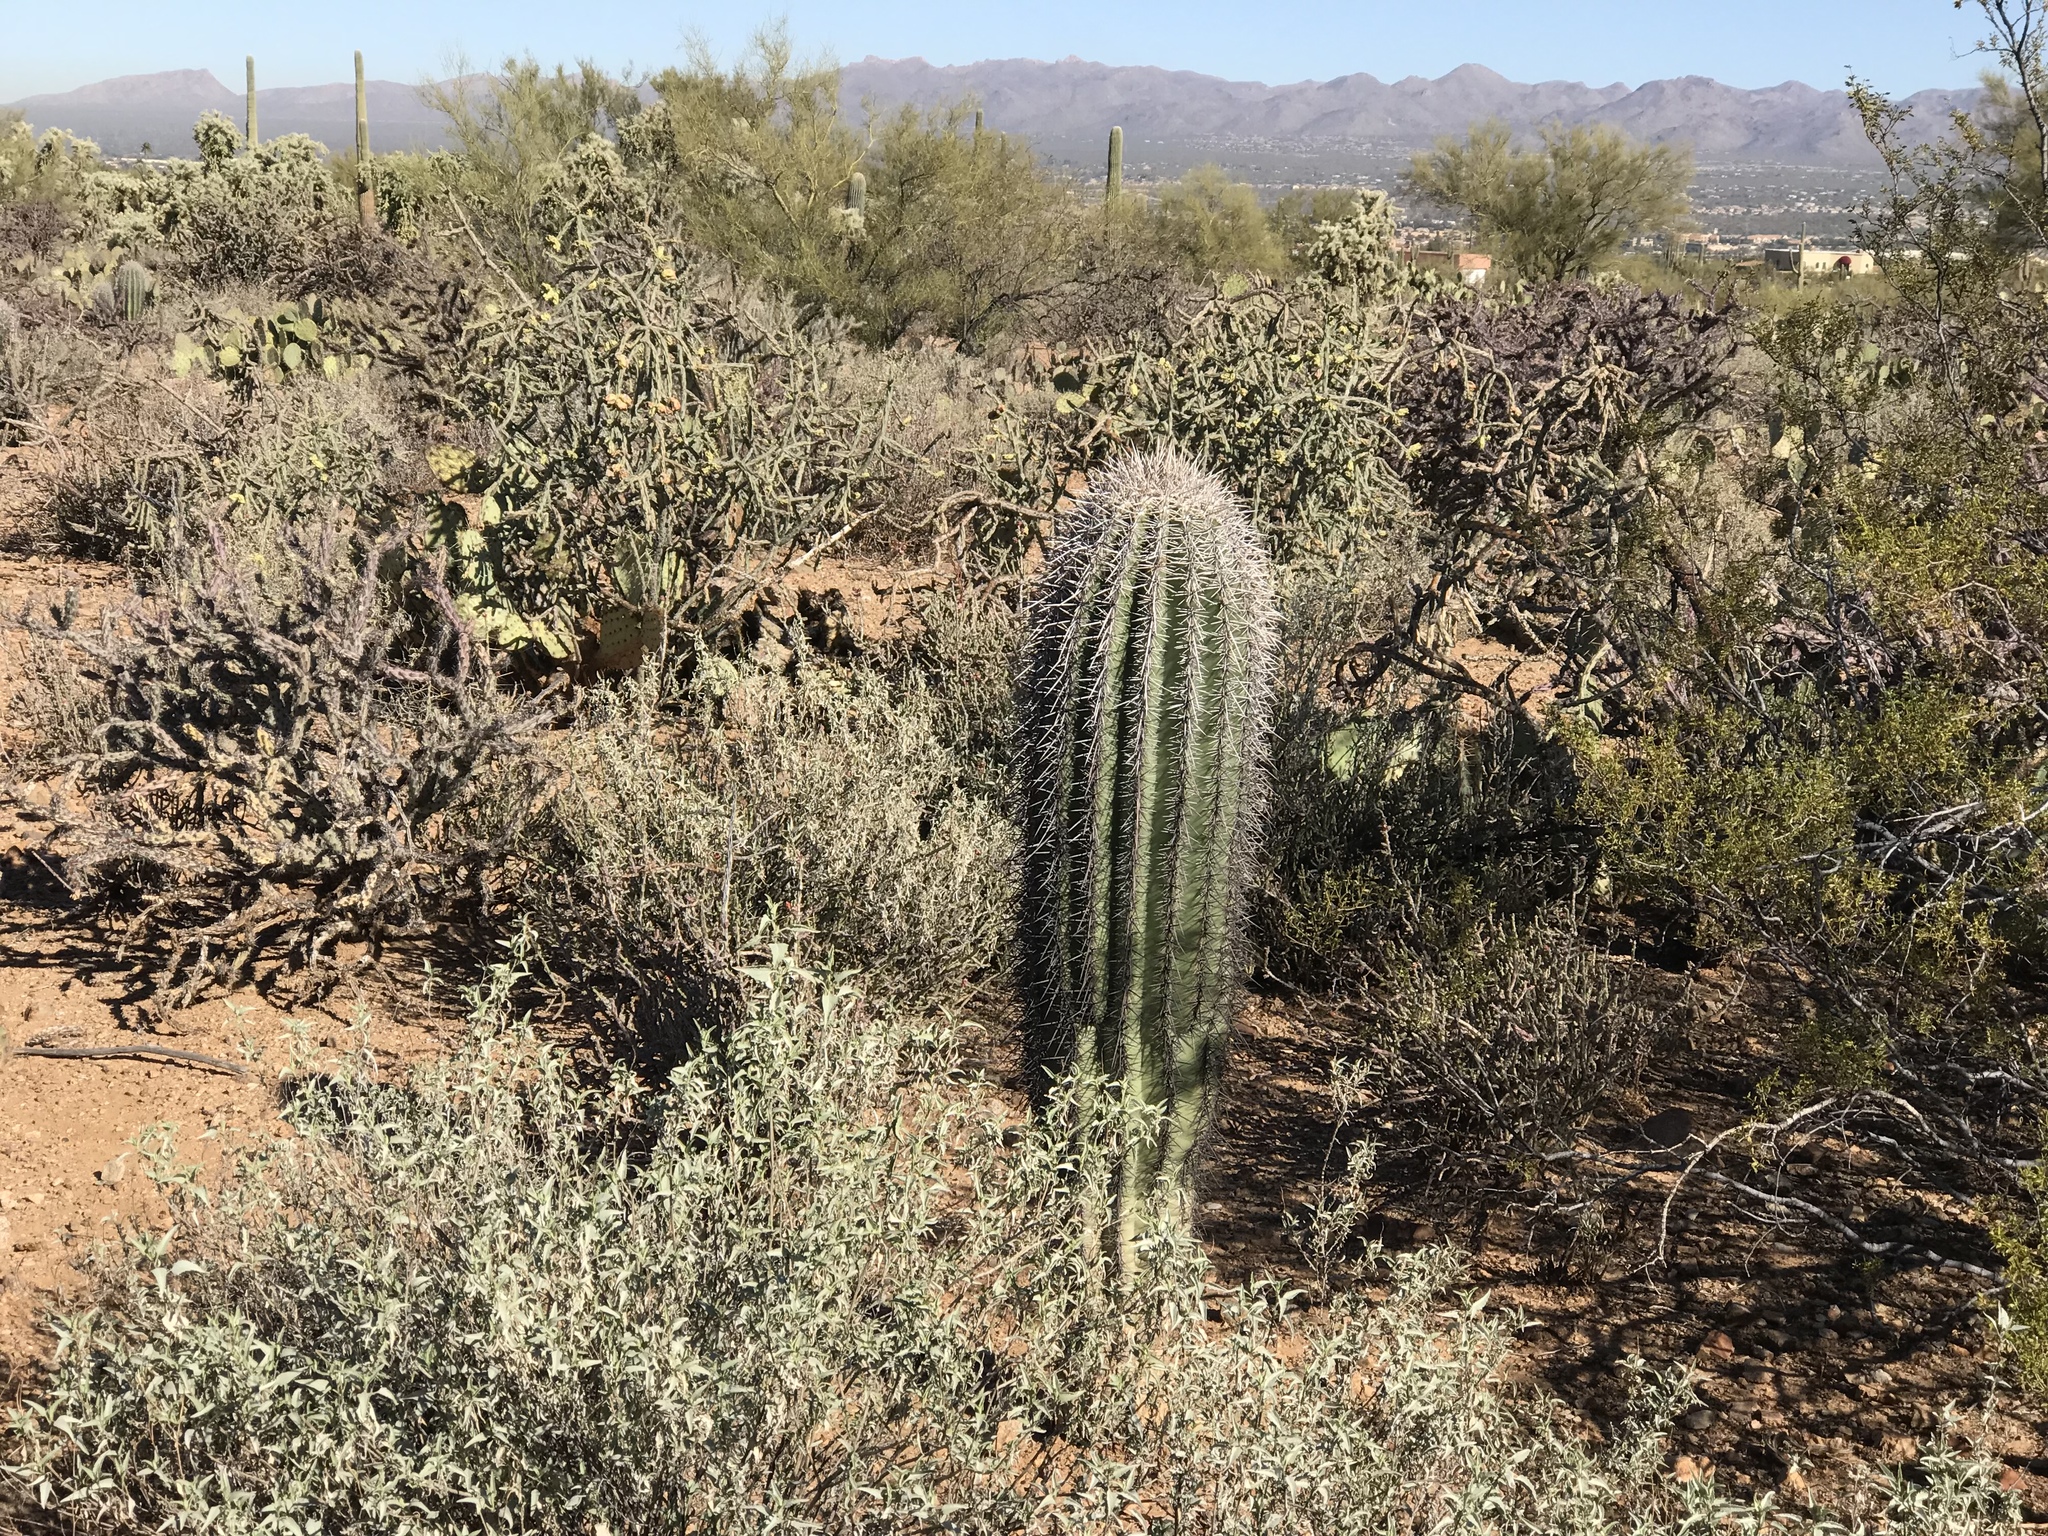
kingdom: Plantae
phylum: Tracheophyta
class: Magnoliopsida
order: Caryophyllales
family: Cactaceae
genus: Carnegiea
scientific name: Carnegiea gigantea
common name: Saguaro
